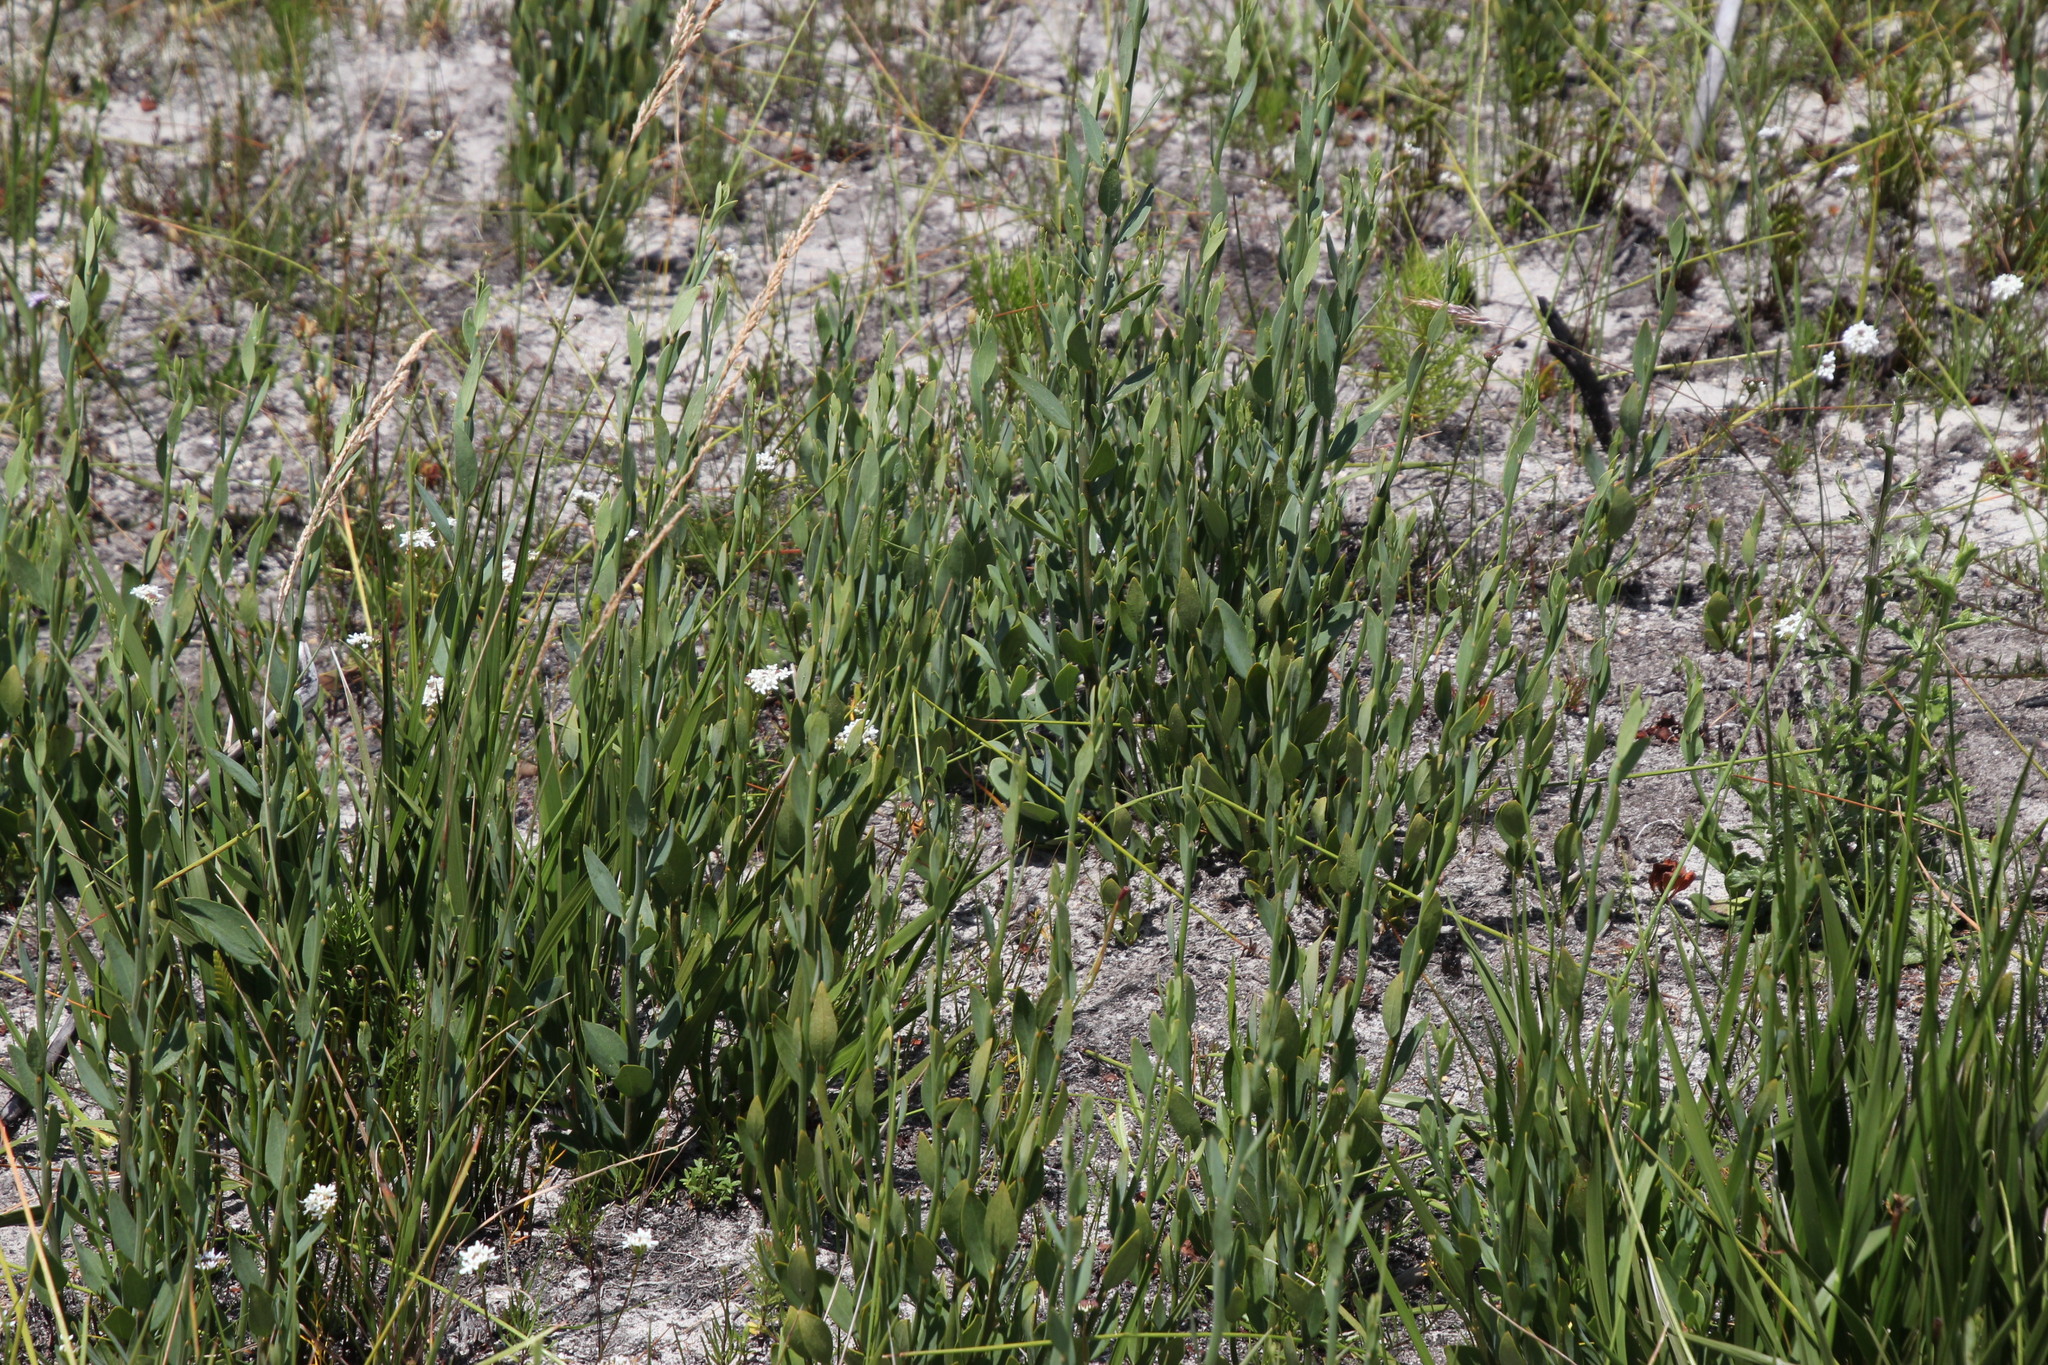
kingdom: Plantae
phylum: Tracheophyta
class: Magnoliopsida
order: Solanales
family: Montiniaceae
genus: Montinia
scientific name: Montinia caryophyllacea
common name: Wild clove-bush
